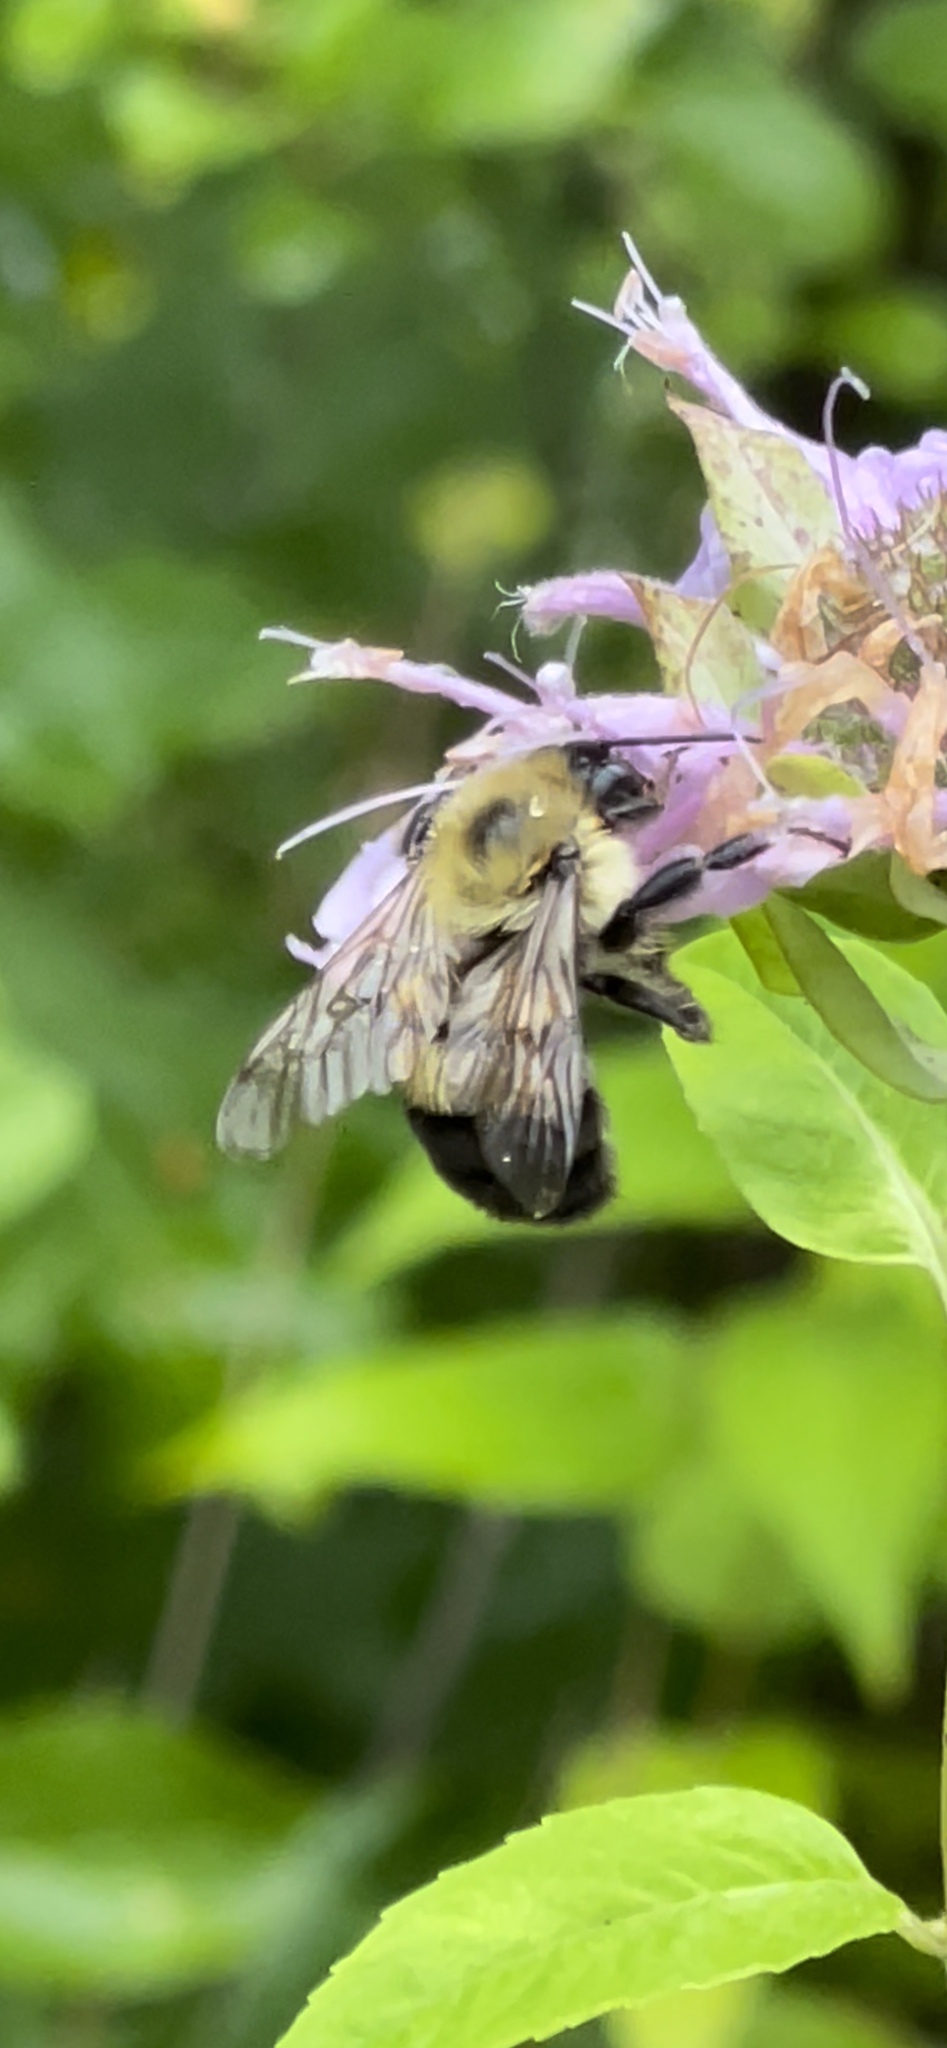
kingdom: Animalia
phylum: Arthropoda
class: Insecta
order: Hymenoptera
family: Apidae
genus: Bombus
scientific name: Bombus bimaculatus
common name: Two-spotted bumble bee
